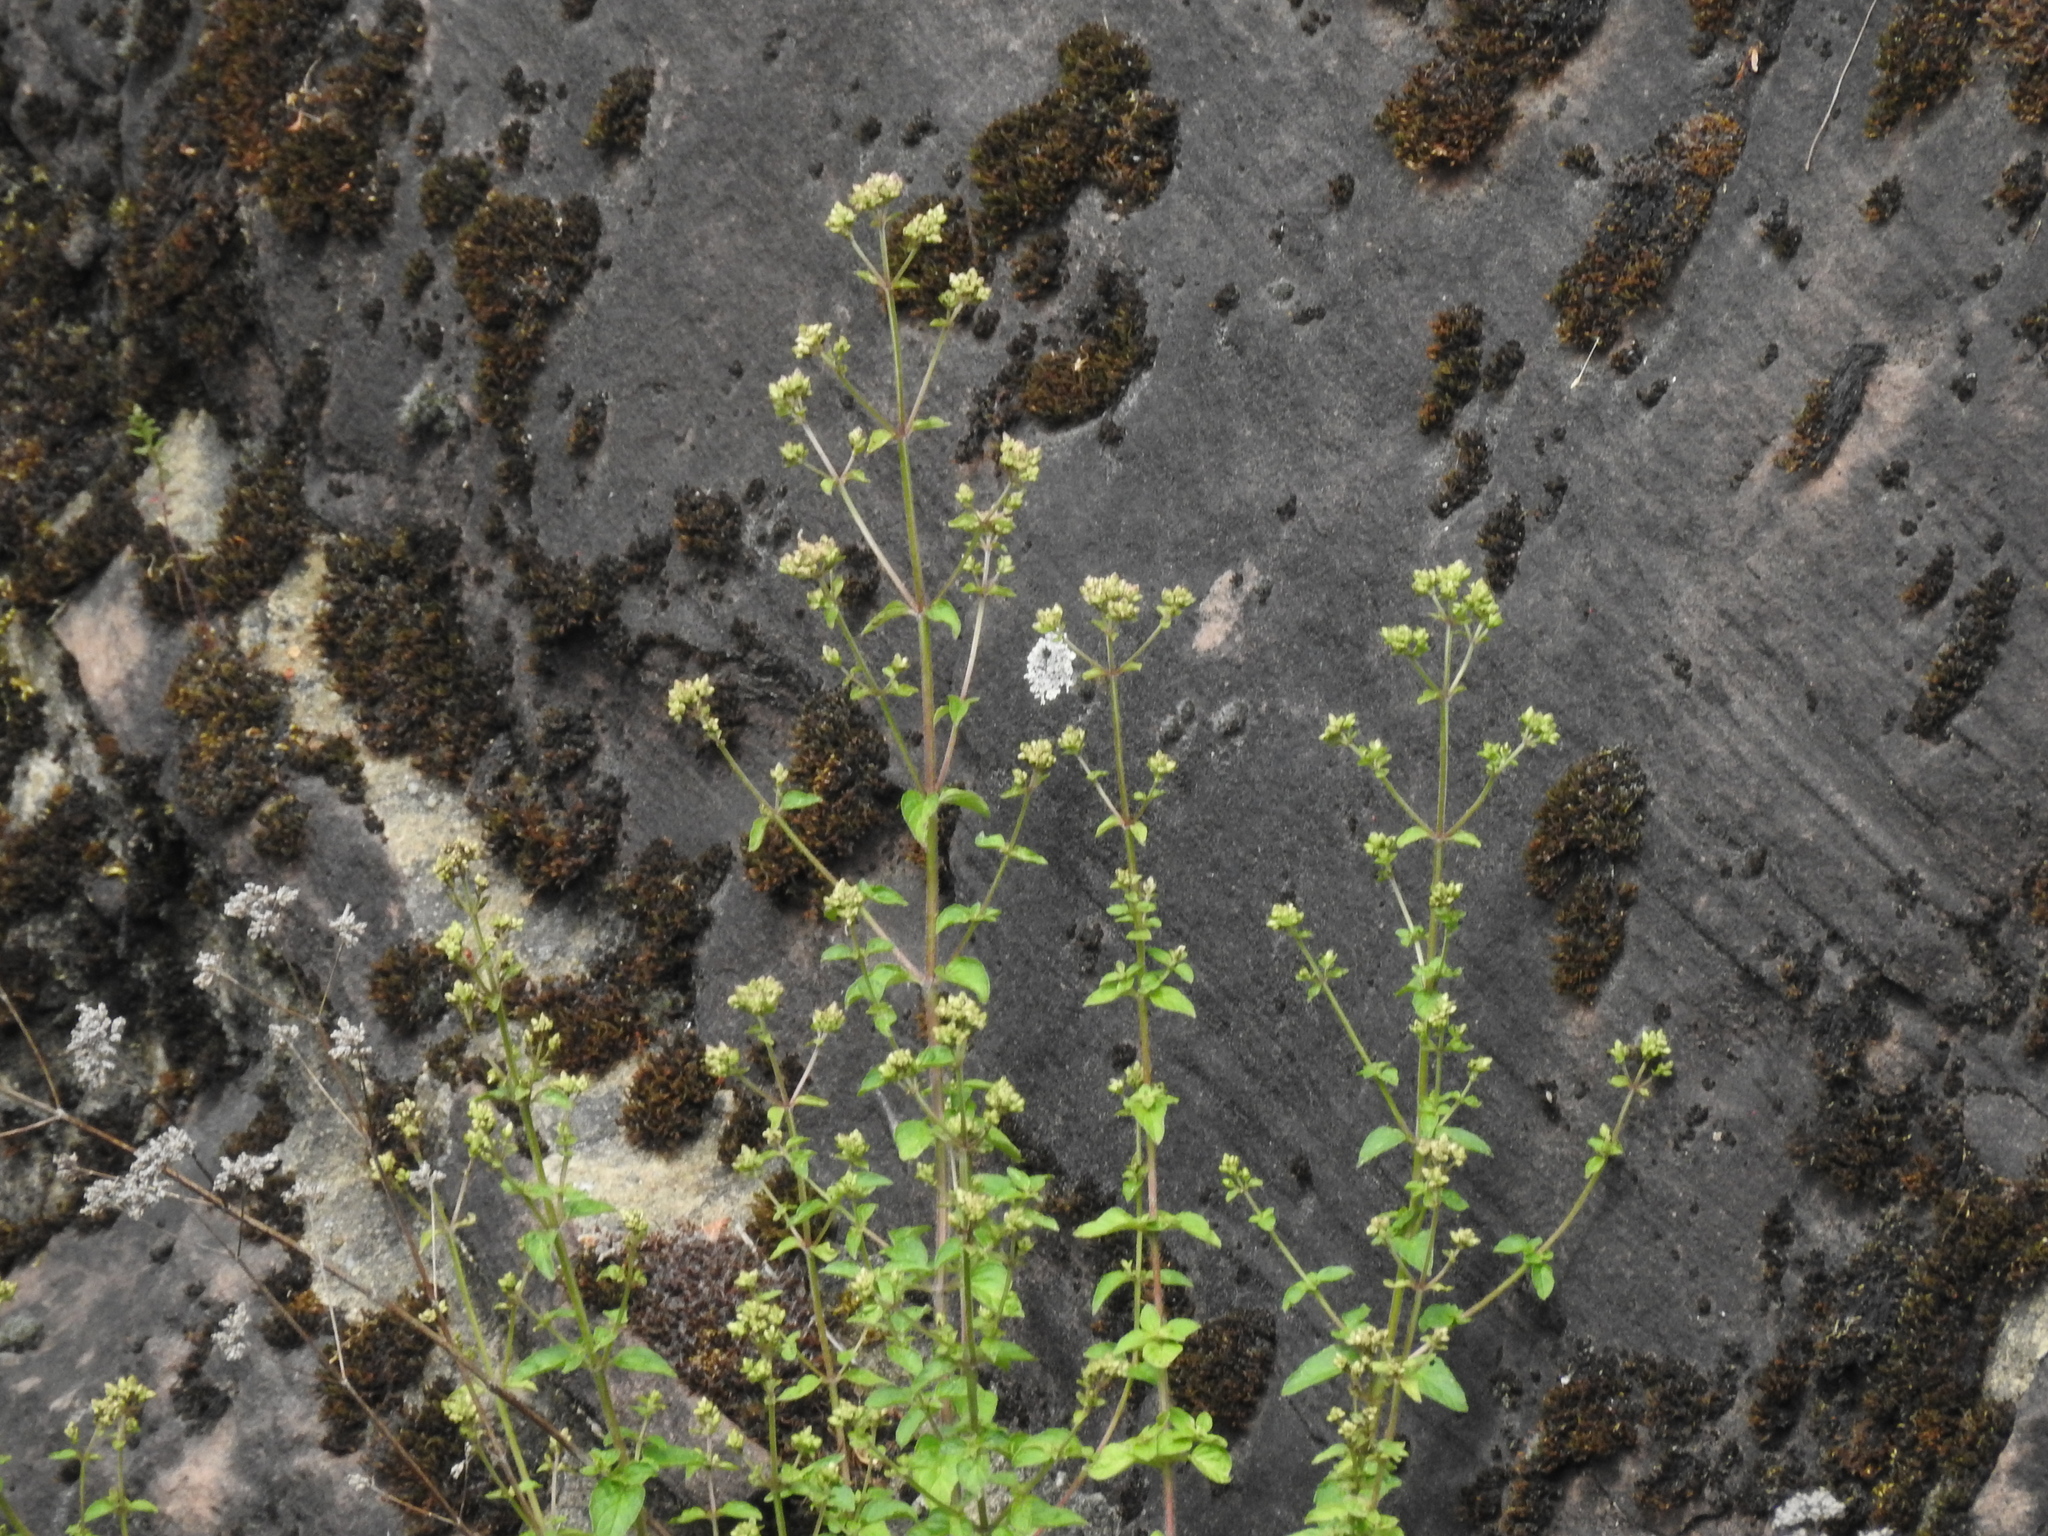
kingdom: Plantae
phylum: Tracheophyta
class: Magnoliopsida
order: Lamiales
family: Lamiaceae
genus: Origanum
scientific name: Origanum vulgare
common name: Wild marjoram
